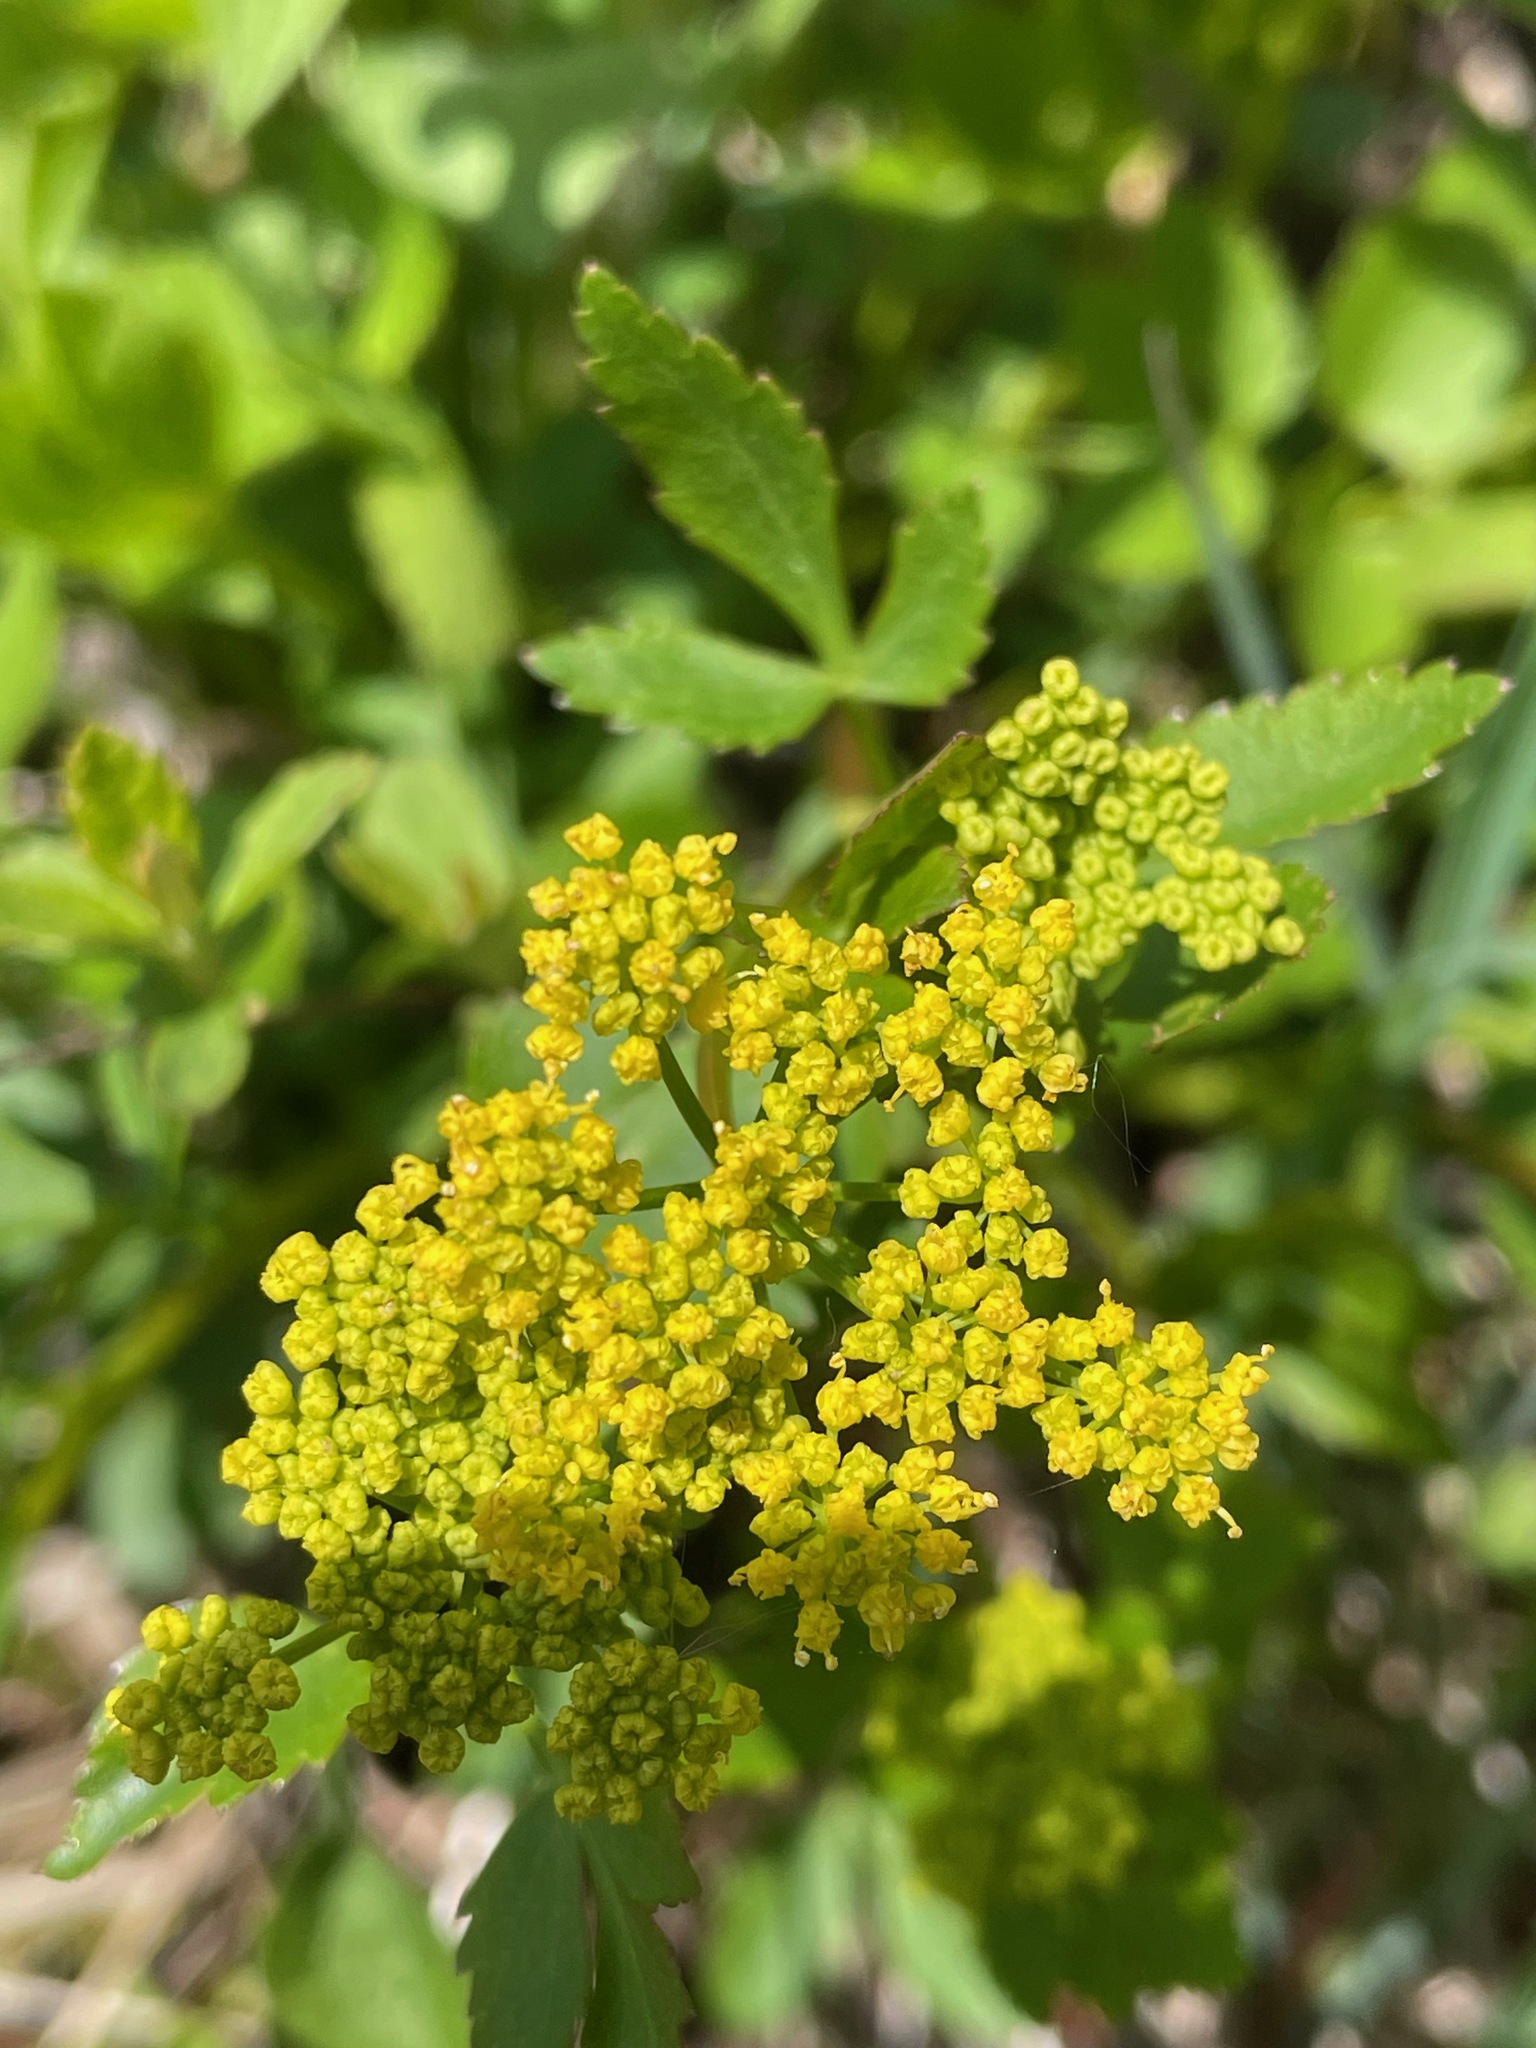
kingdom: Plantae
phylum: Tracheophyta
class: Magnoliopsida
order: Apiales
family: Apiaceae
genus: Zizia
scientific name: Zizia aurea
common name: Golden alexanders
